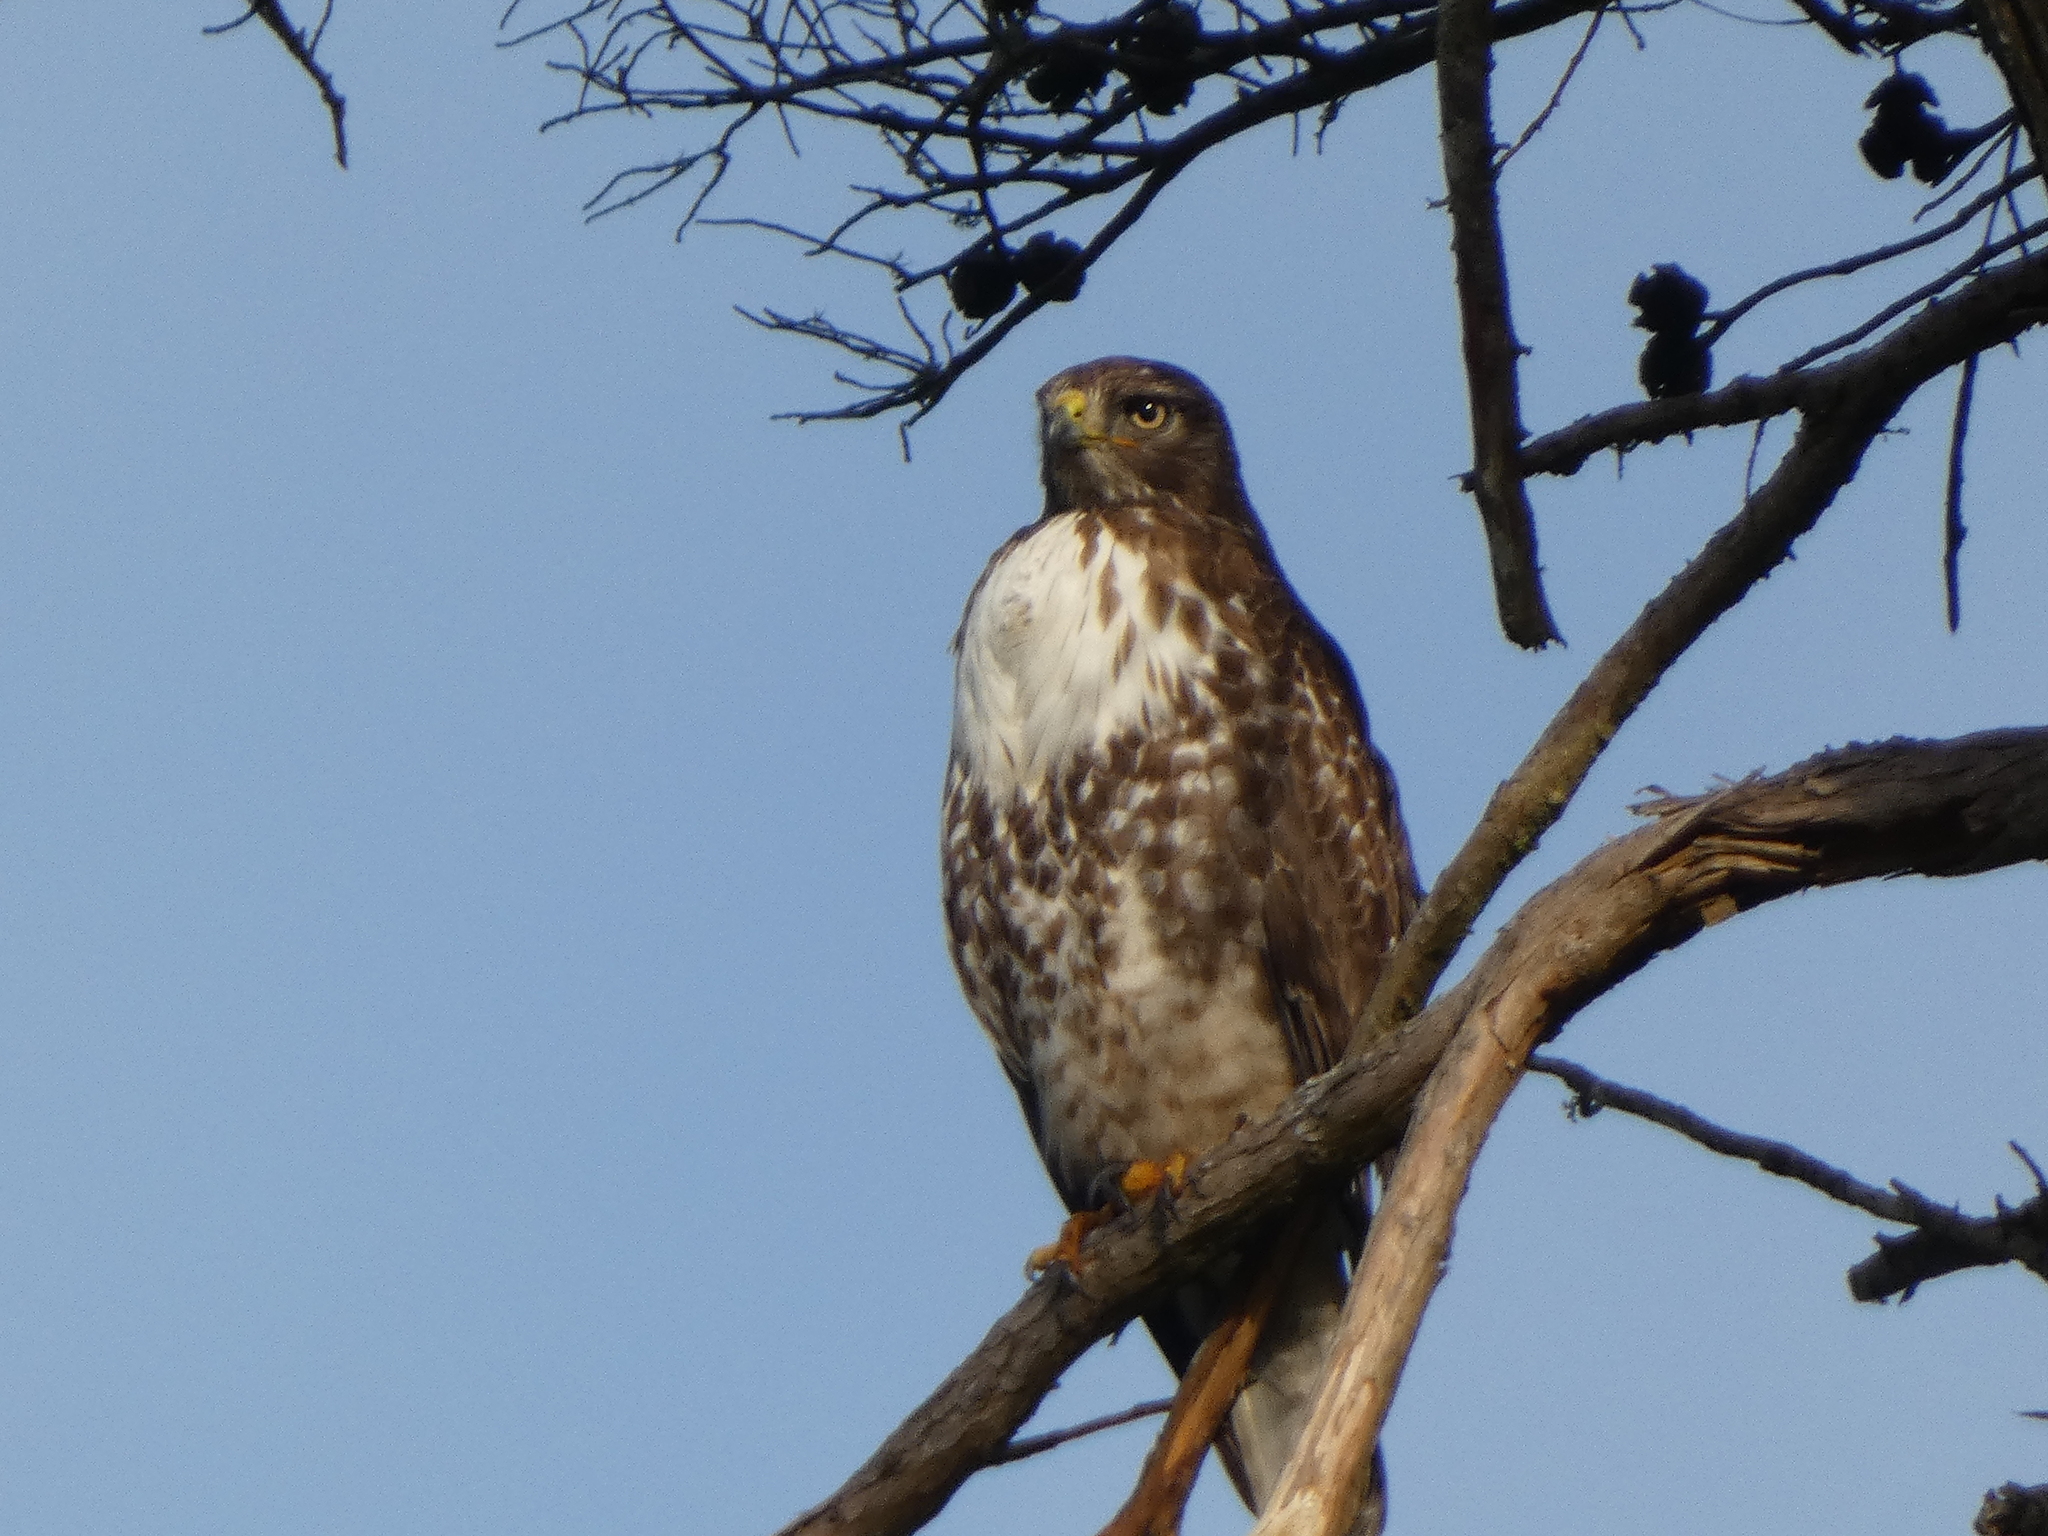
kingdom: Animalia
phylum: Chordata
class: Aves
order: Accipitriformes
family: Accipitridae
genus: Buteo
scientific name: Buteo jamaicensis
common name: Red-tailed hawk
